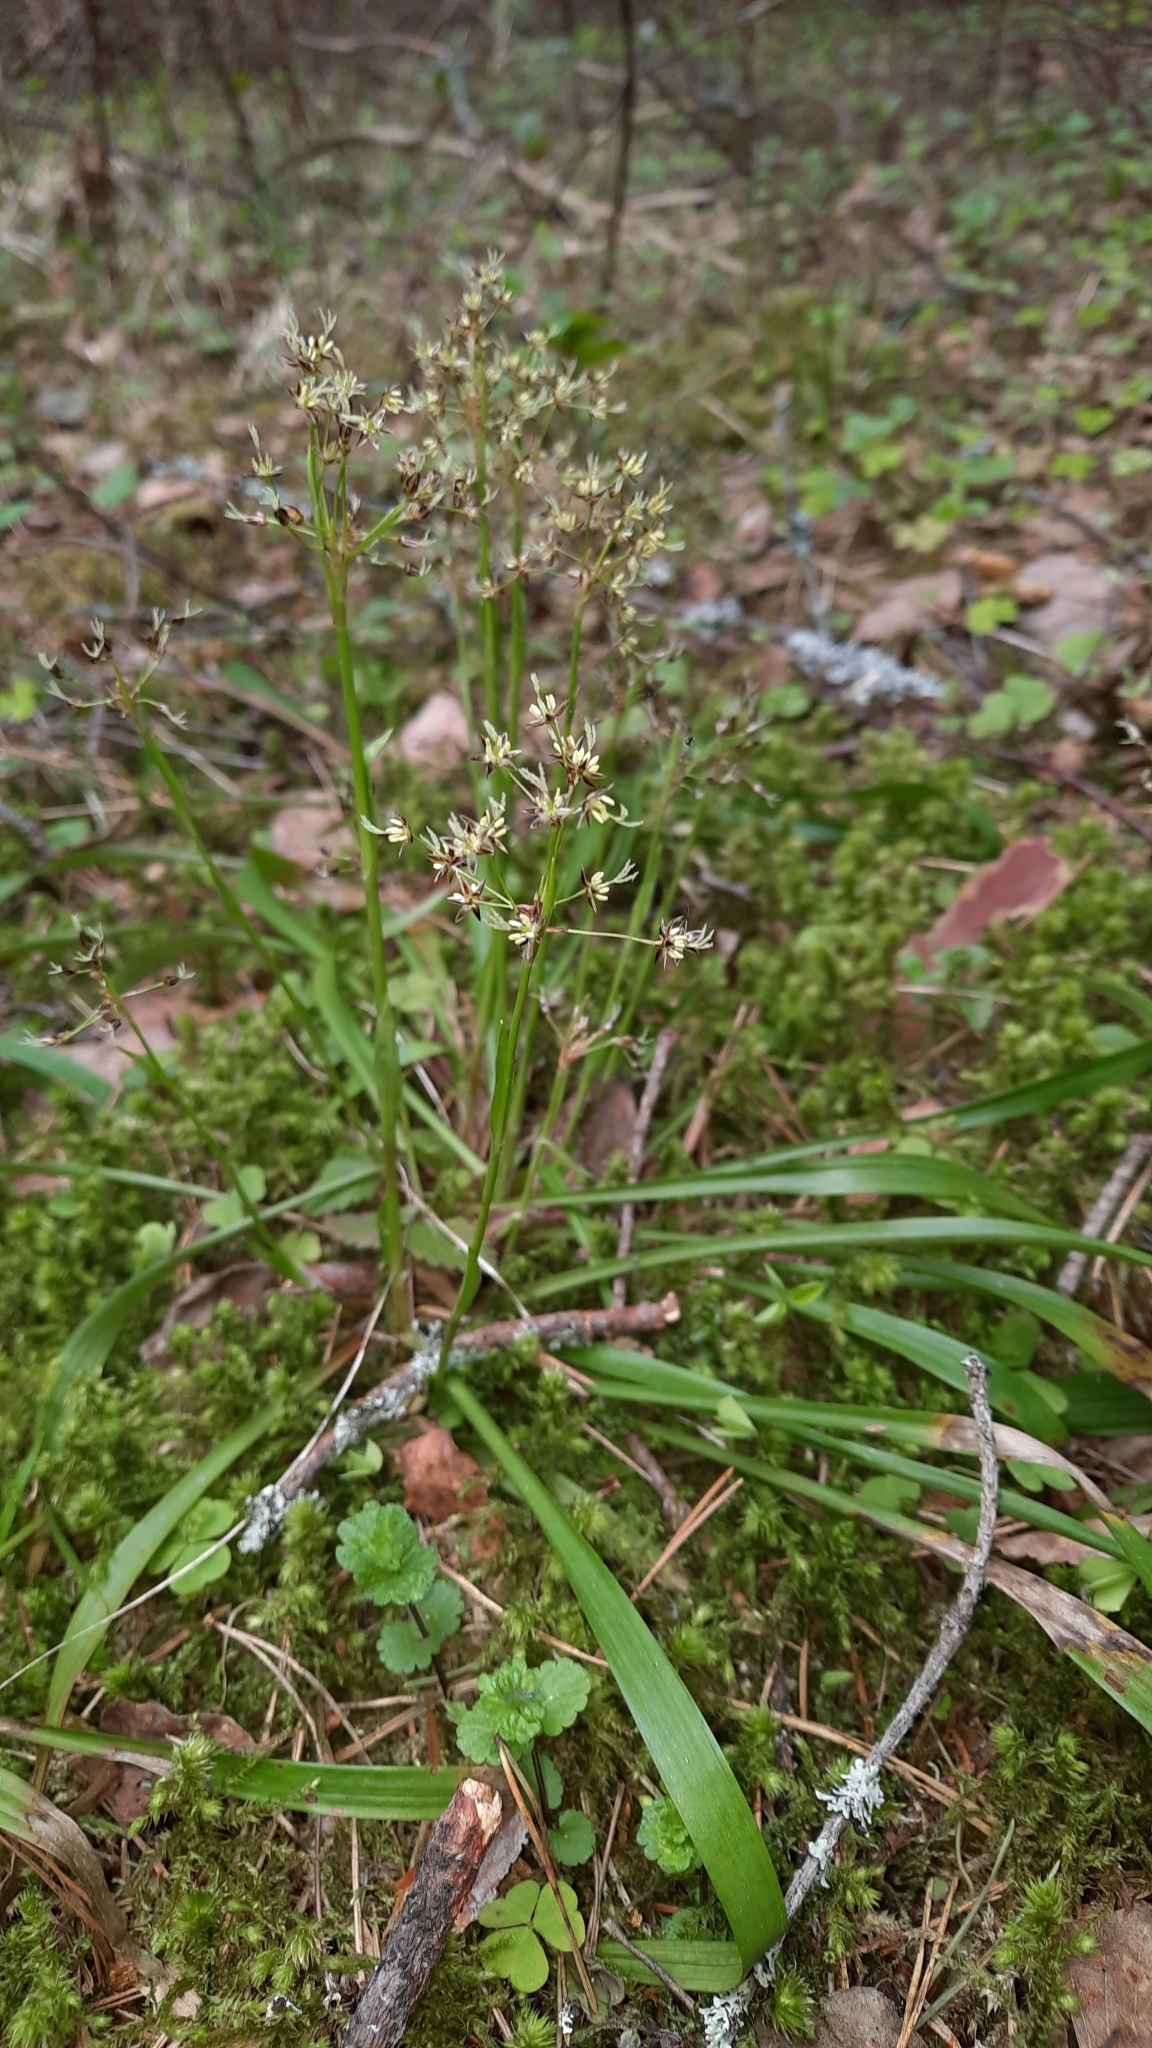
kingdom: Plantae
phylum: Tracheophyta
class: Liliopsida
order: Poales
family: Juncaceae
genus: Luzula
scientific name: Luzula pilosa
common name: Hairy wood-rush
